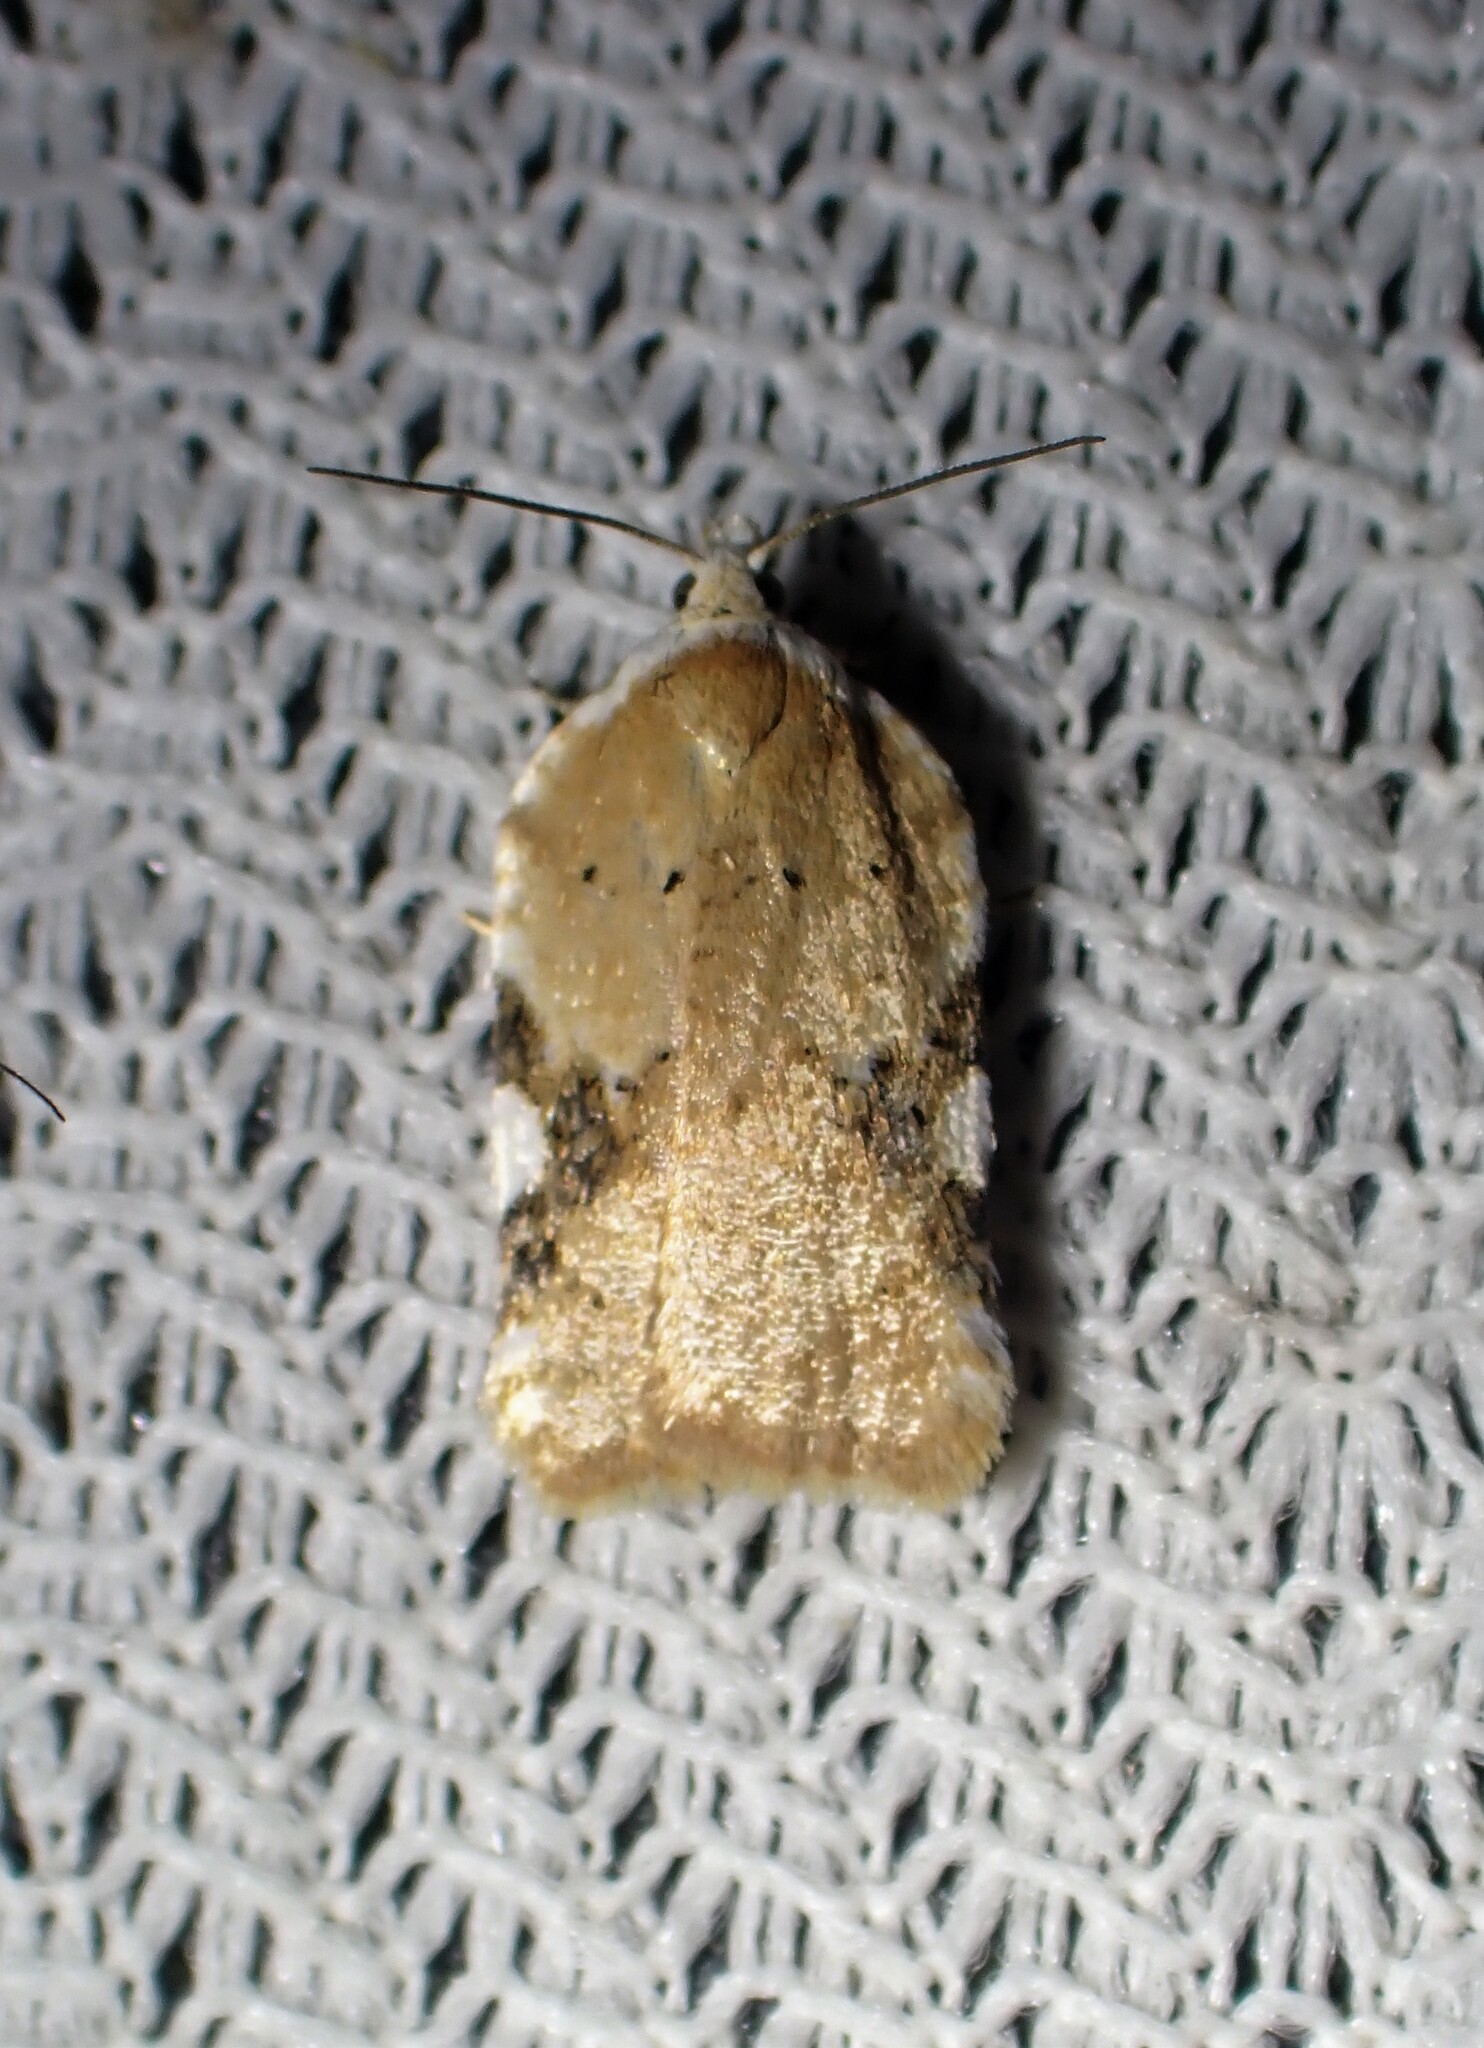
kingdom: Animalia
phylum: Arthropoda
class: Insecta
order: Lepidoptera
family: Tortricidae
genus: Acleris
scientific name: Acleris cervinana
